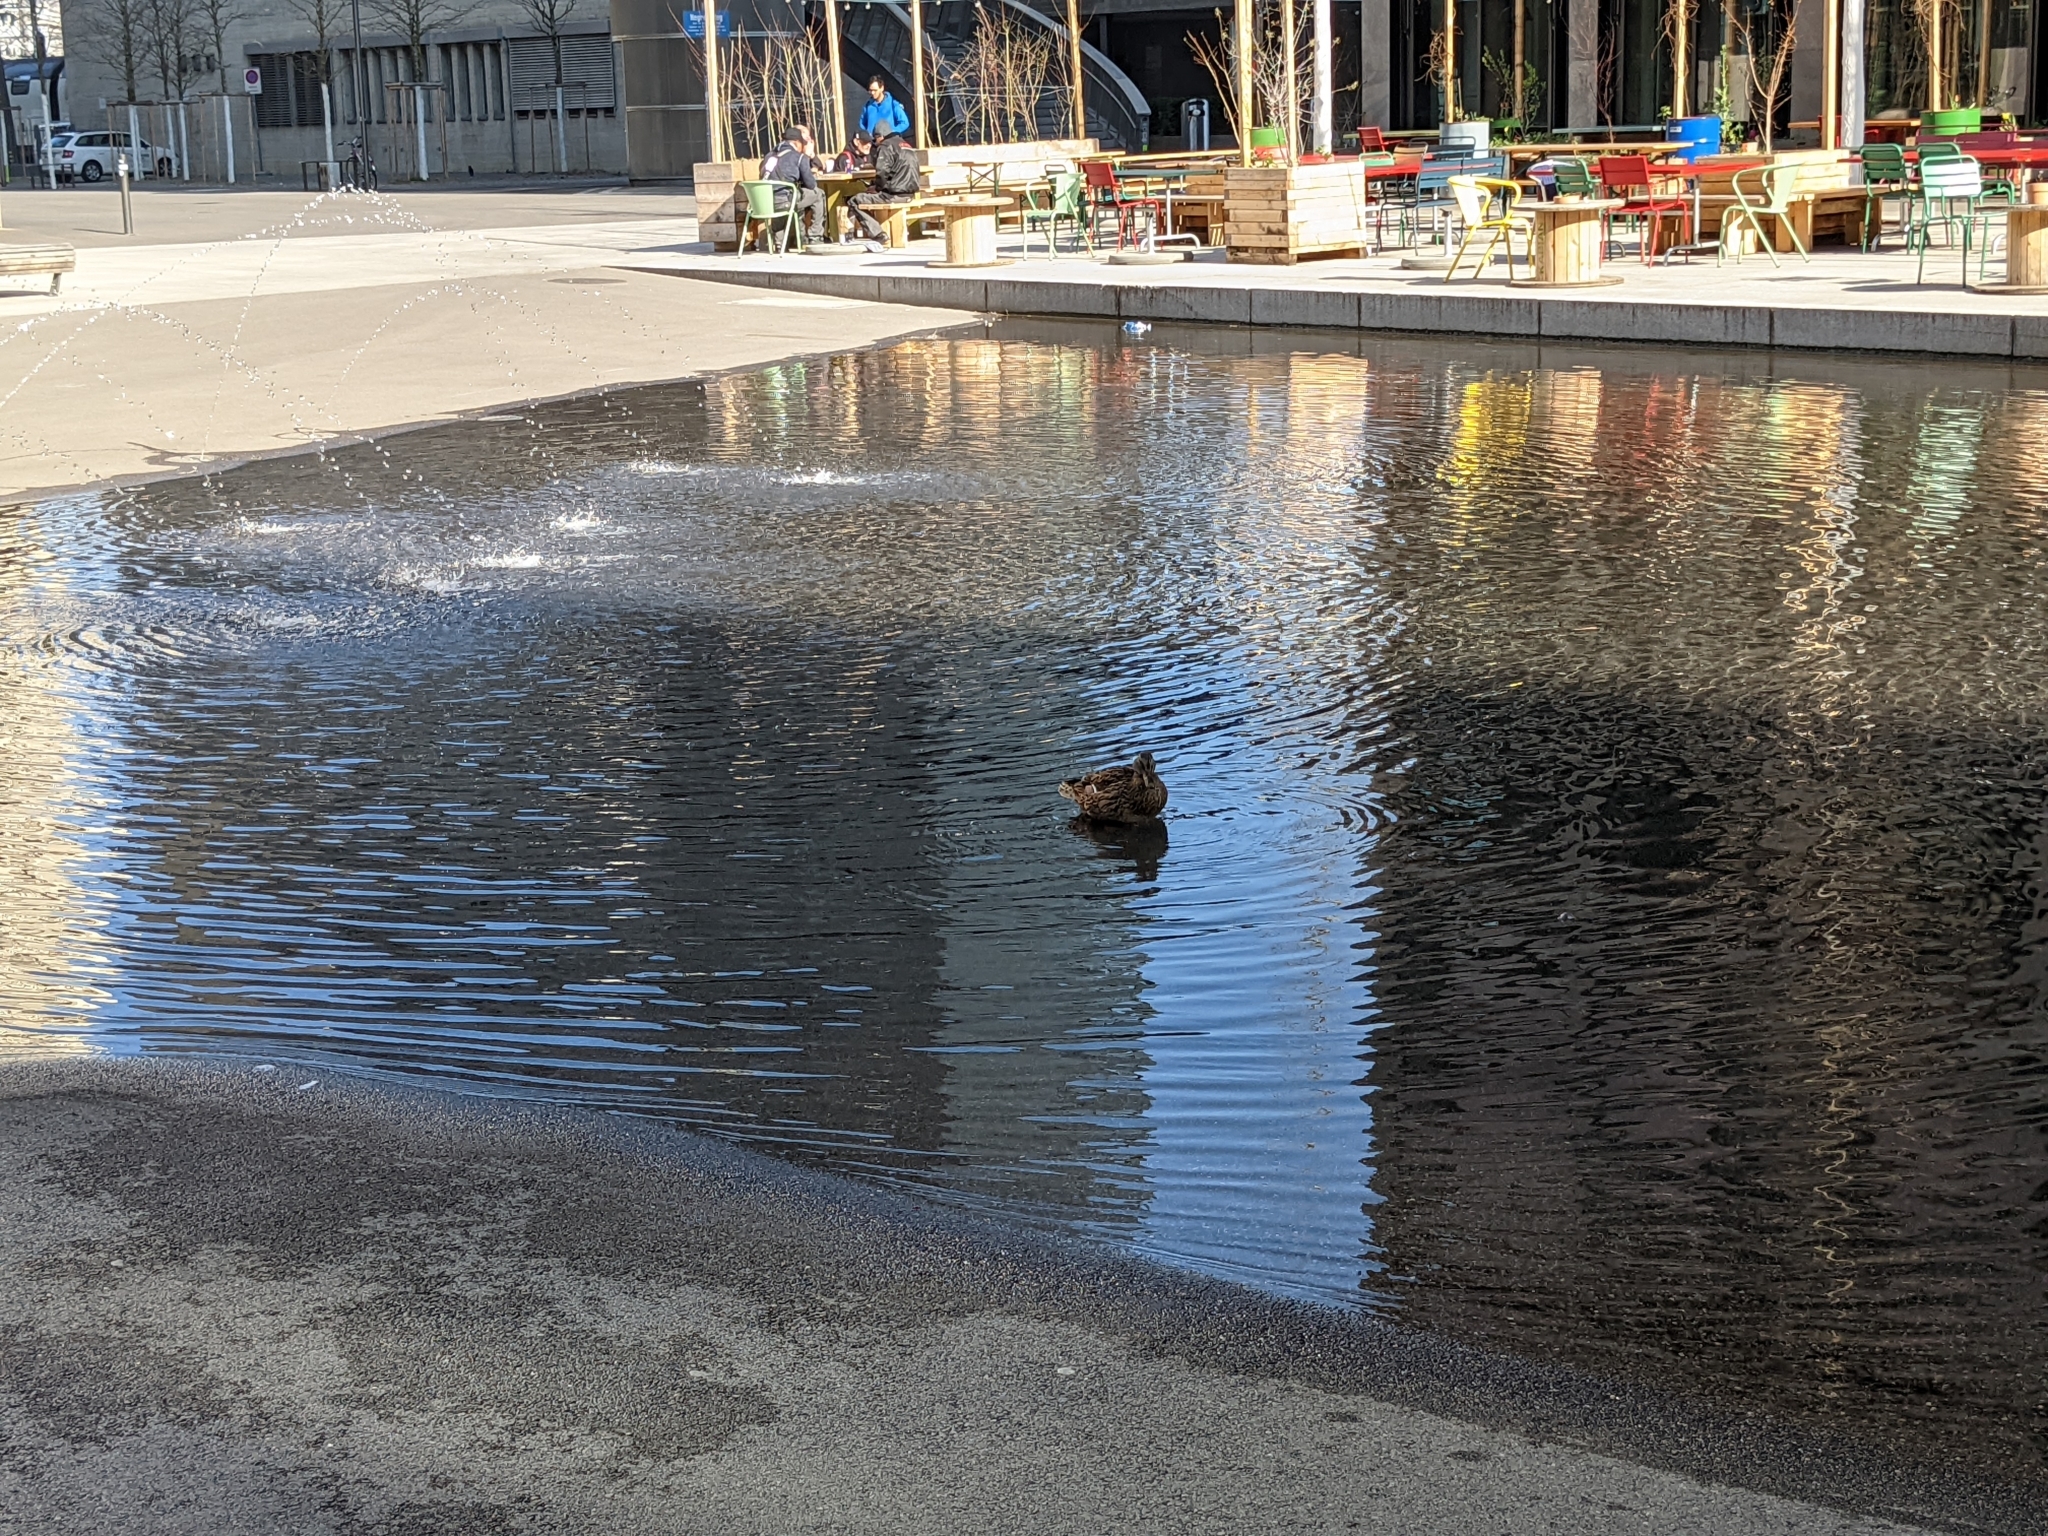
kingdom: Animalia
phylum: Chordata
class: Aves
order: Anseriformes
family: Anatidae
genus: Anas
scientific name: Anas platyrhynchos
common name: Mallard
